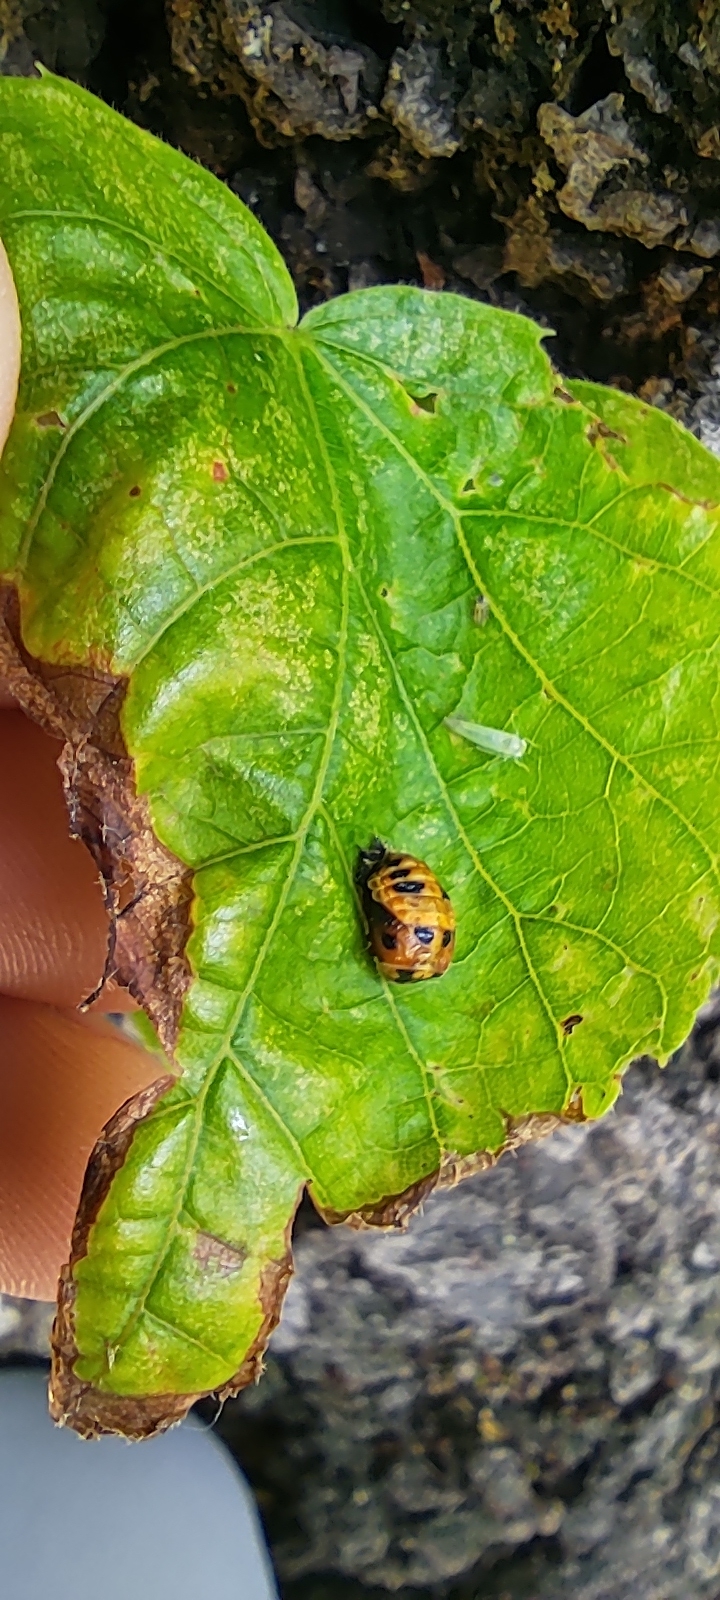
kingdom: Animalia
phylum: Arthropoda
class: Insecta
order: Coleoptera
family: Coccinellidae
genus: Harmonia
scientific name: Harmonia axyridis
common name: Harlequin ladybird
